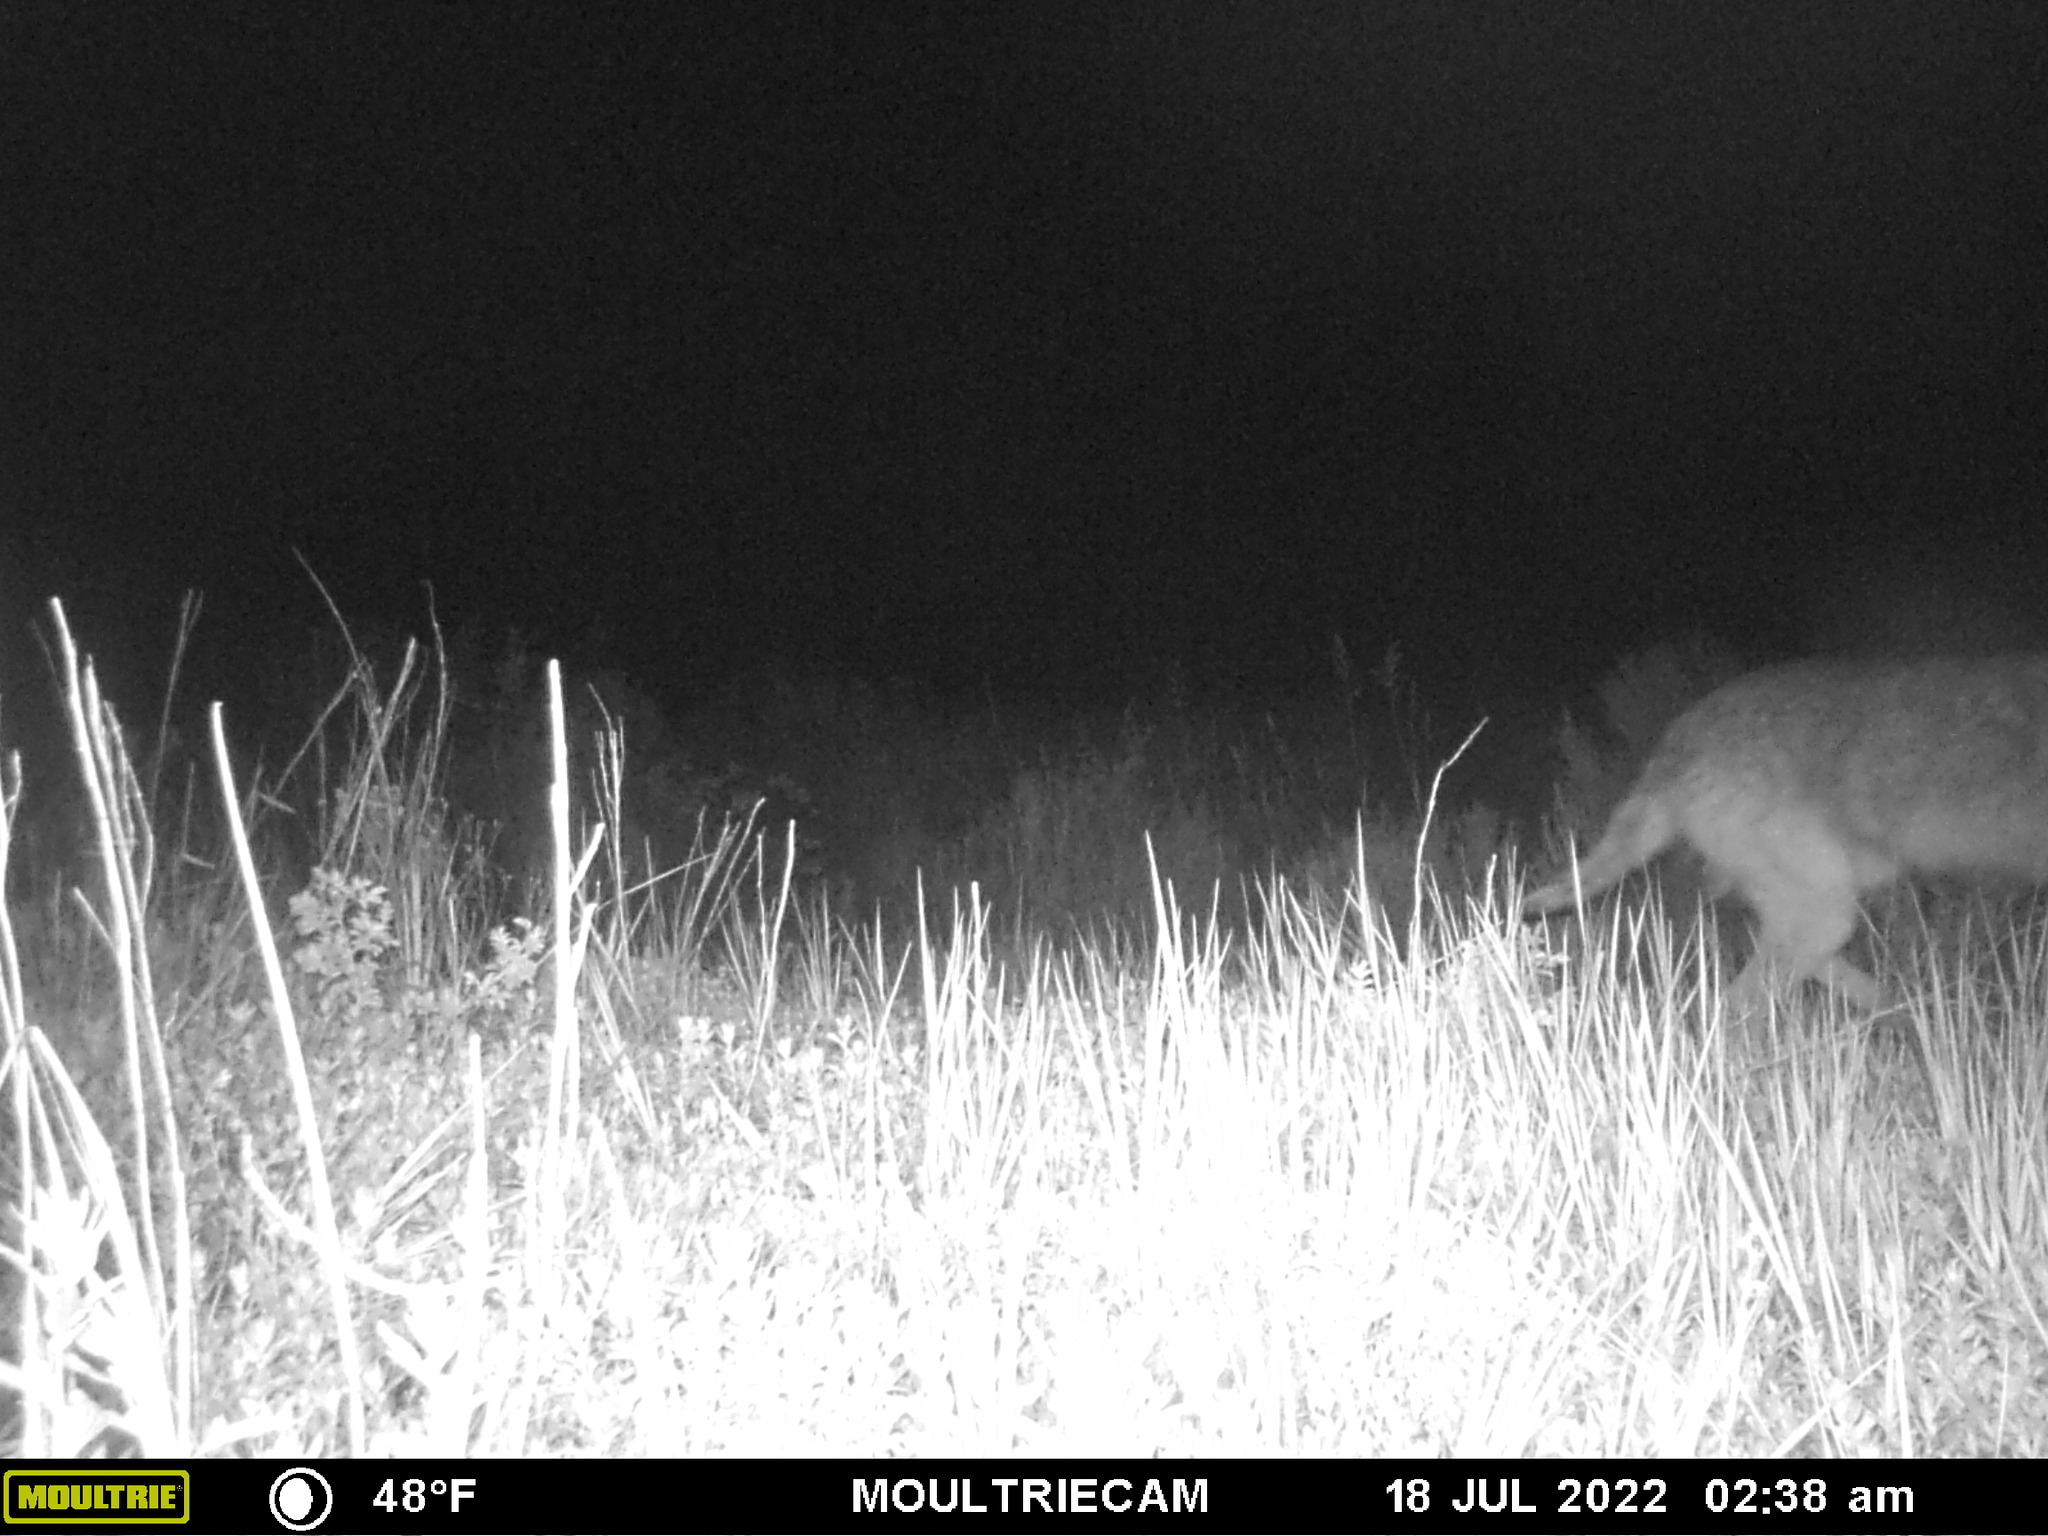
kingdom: Animalia
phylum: Chordata
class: Mammalia
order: Carnivora
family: Canidae
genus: Canis
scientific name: Canis latrans
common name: Coyote
